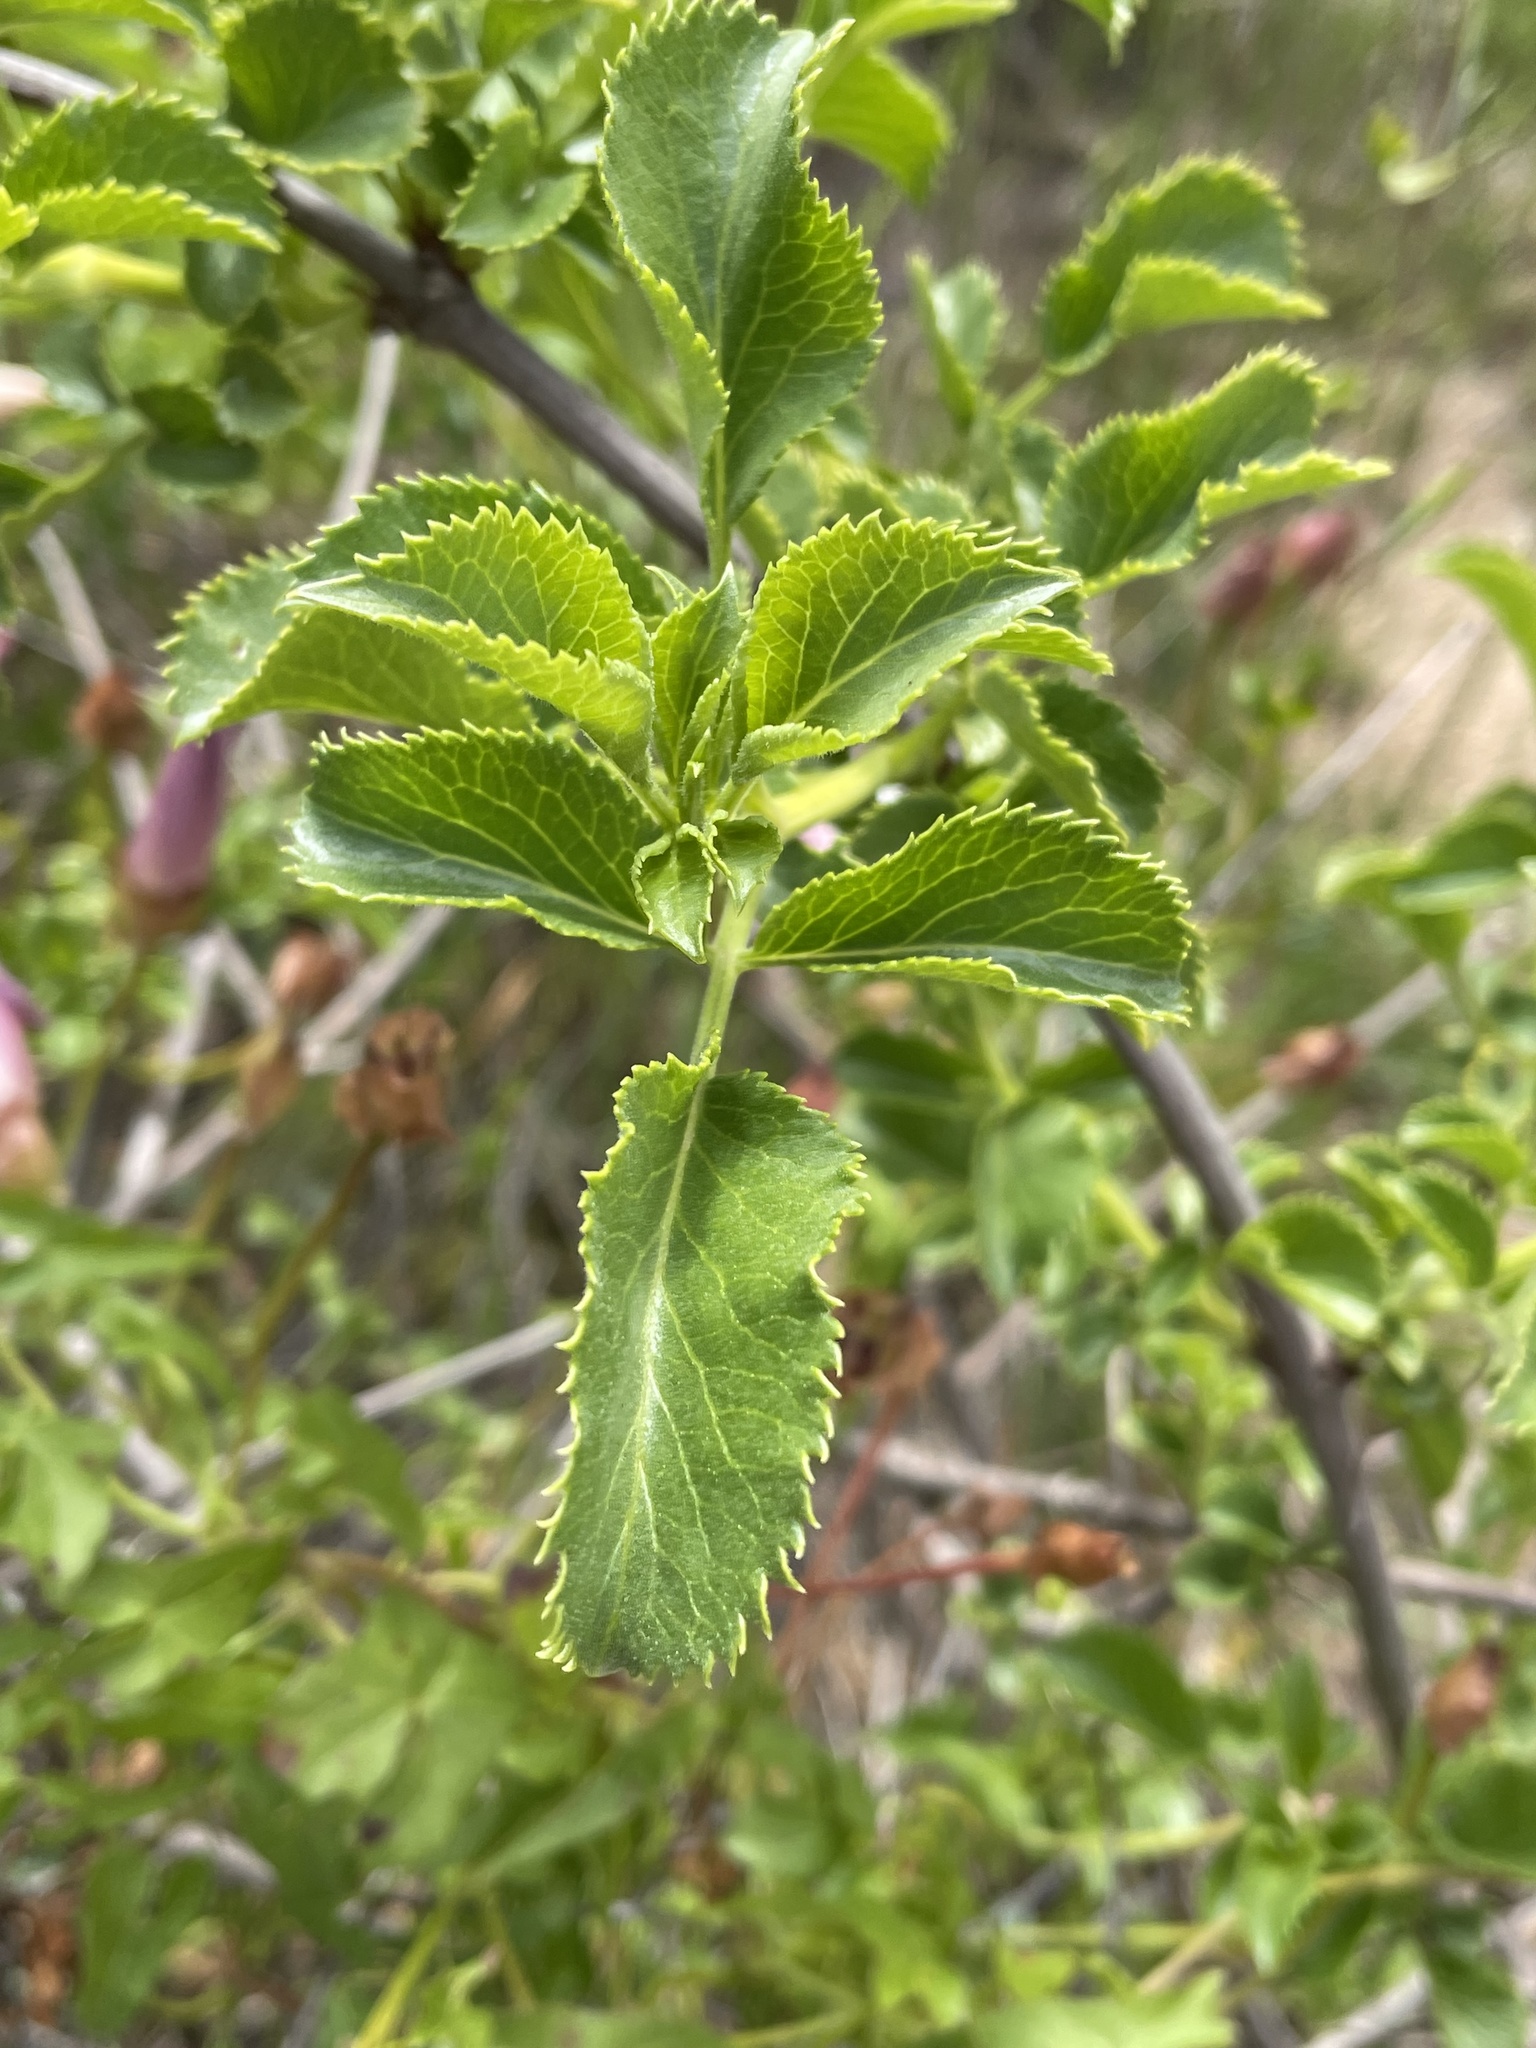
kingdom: Plantae
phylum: Tracheophyta
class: Magnoliopsida
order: Dipsacales
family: Viburnaceae
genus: Sambucus
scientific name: Sambucus cerulea
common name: Blue elder
